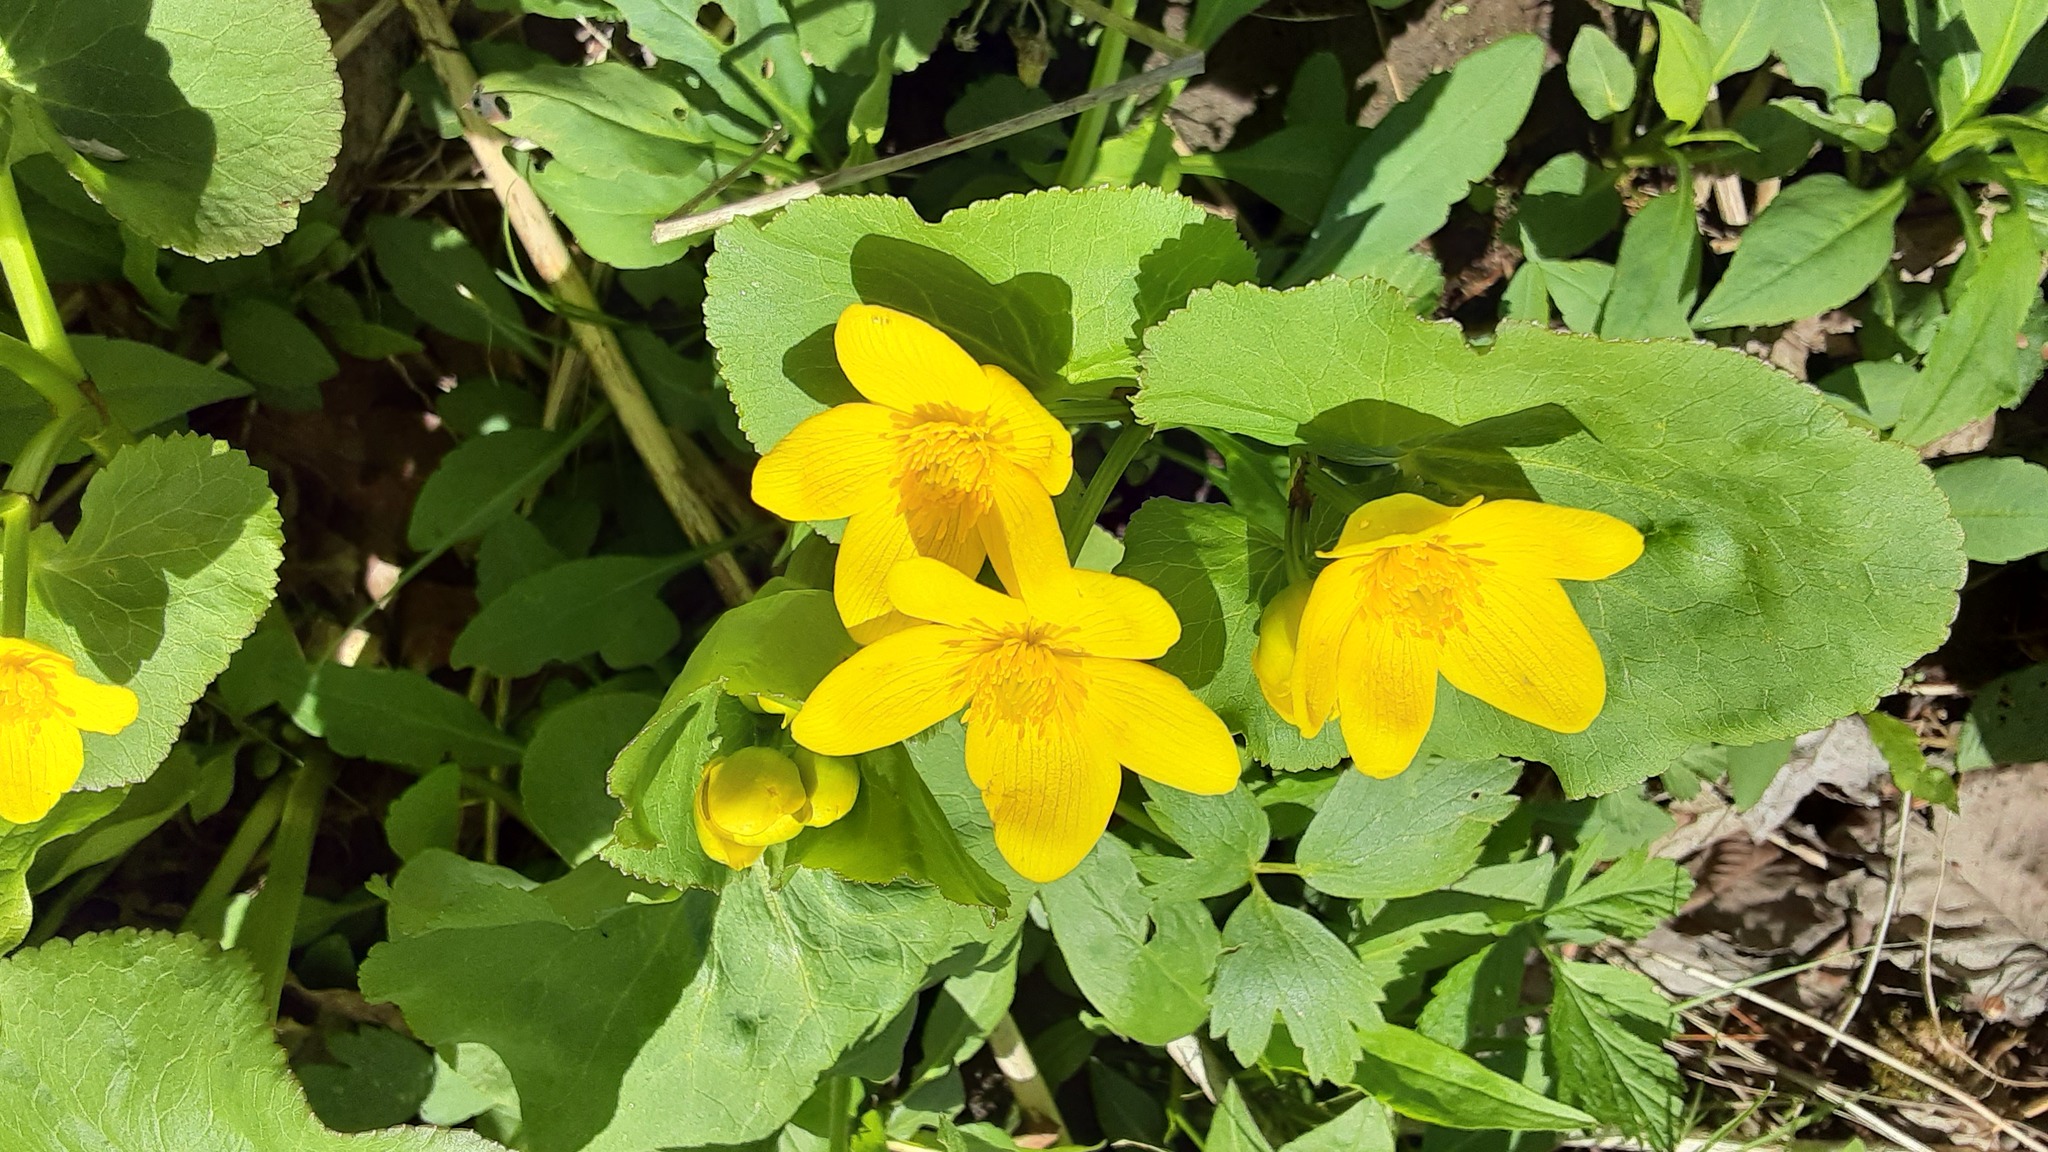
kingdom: Plantae
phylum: Tracheophyta
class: Magnoliopsida
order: Ranunculales
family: Ranunculaceae
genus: Caltha
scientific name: Caltha palustris
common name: Marsh marigold
